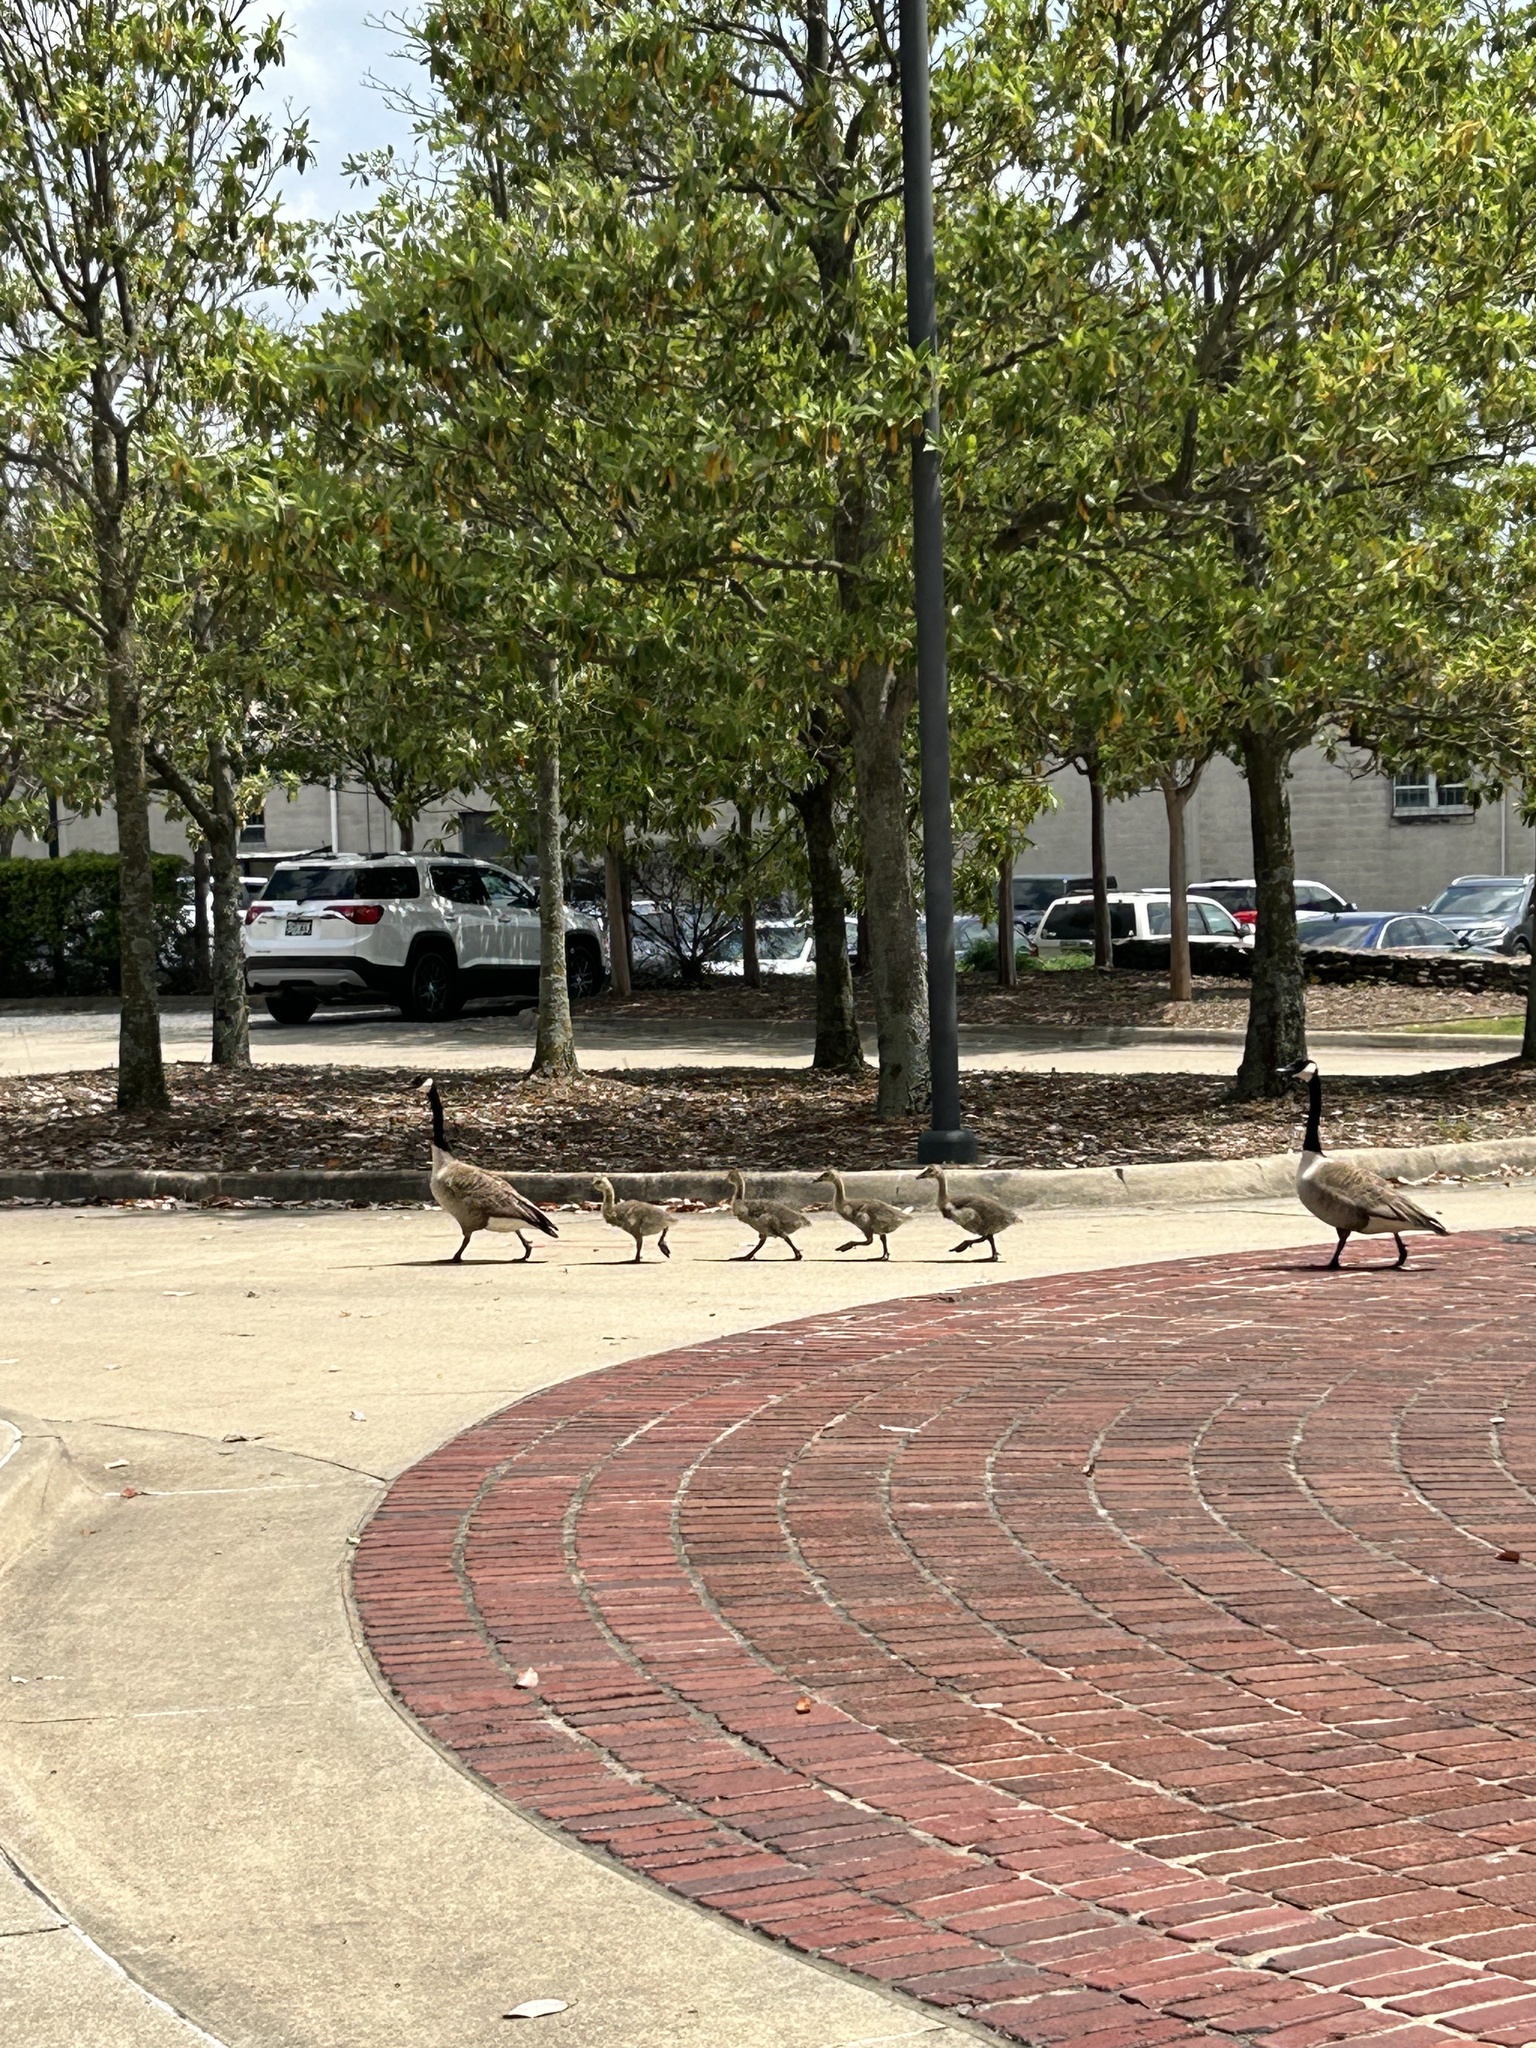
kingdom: Animalia
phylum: Chordata
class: Aves
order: Anseriformes
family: Anatidae
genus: Branta
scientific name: Branta canadensis
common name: Canada goose
